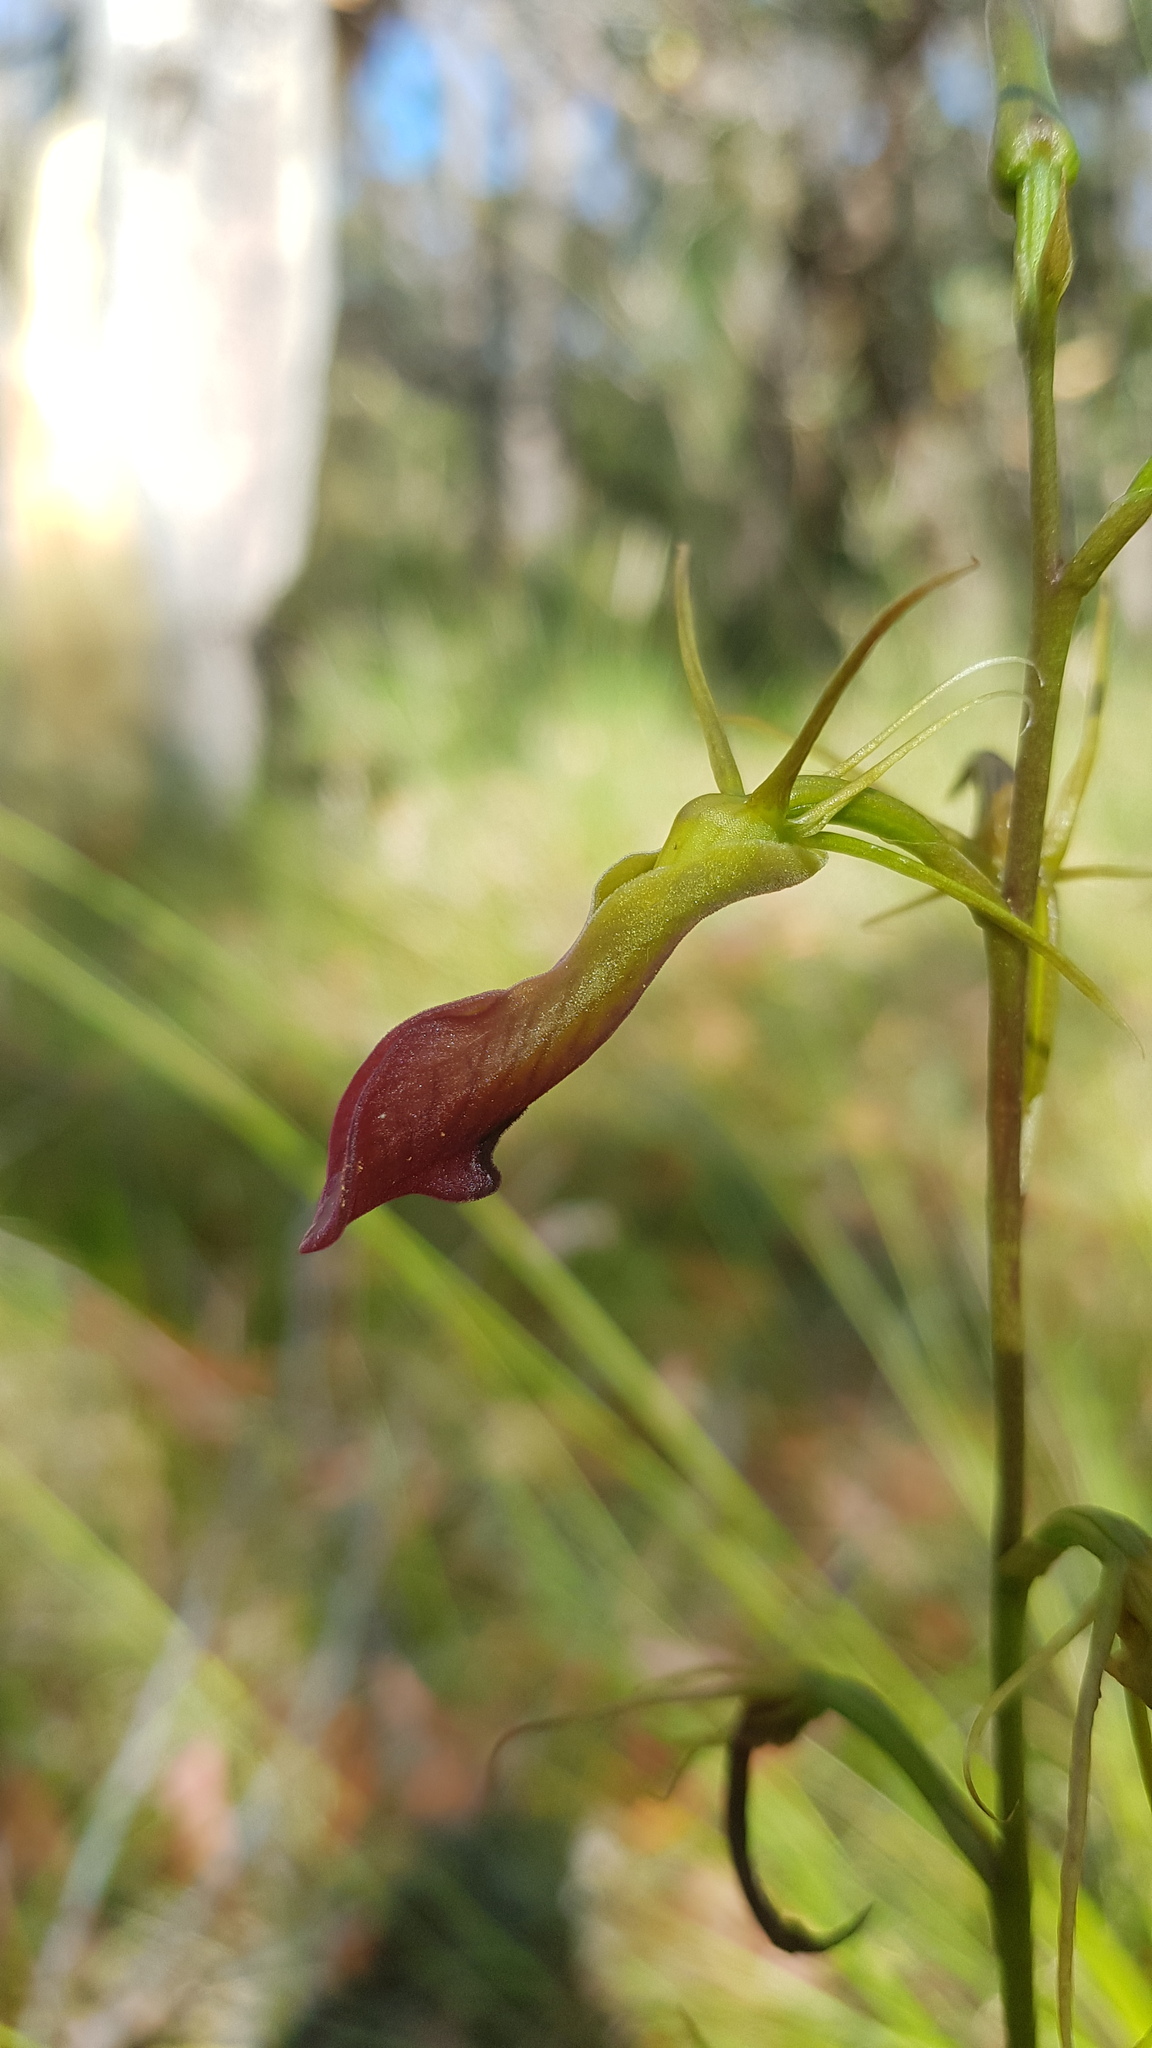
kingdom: Plantae
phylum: Tracheophyta
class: Liliopsida
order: Asparagales
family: Orchidaceae
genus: Cryptostylis
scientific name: Cryptostylis subulata
